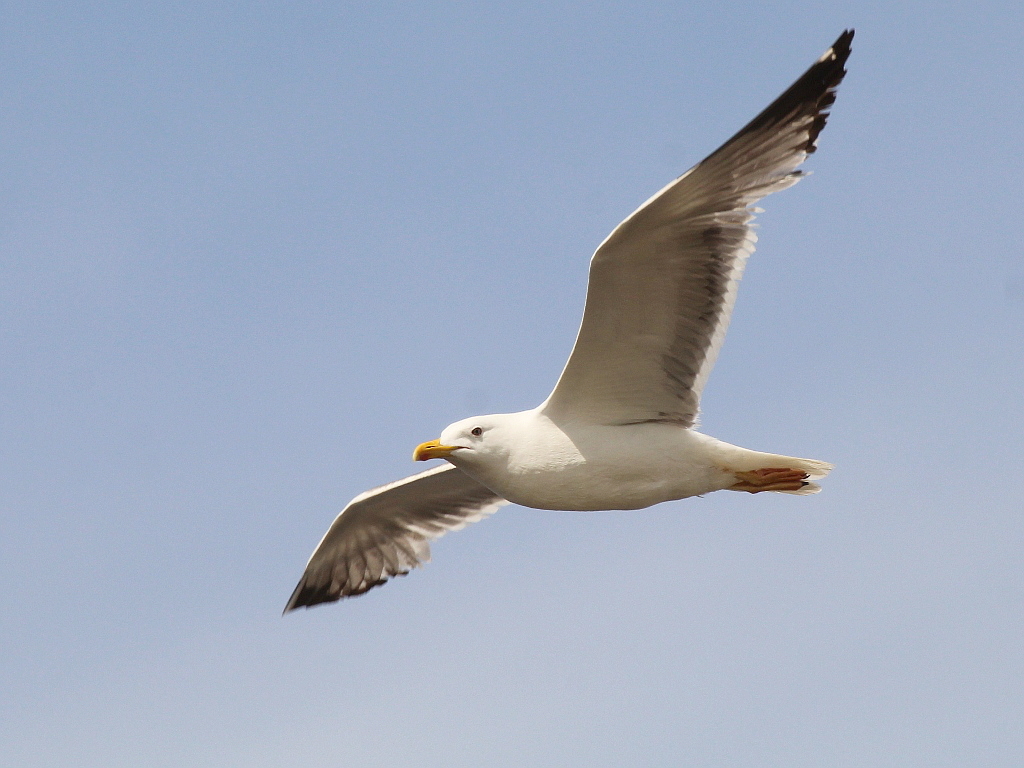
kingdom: Animalia
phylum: Chordata
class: Aves
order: Charadriiformes
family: Laridae
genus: Larus
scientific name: Larus fuscus
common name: Lesser black-backed gull
